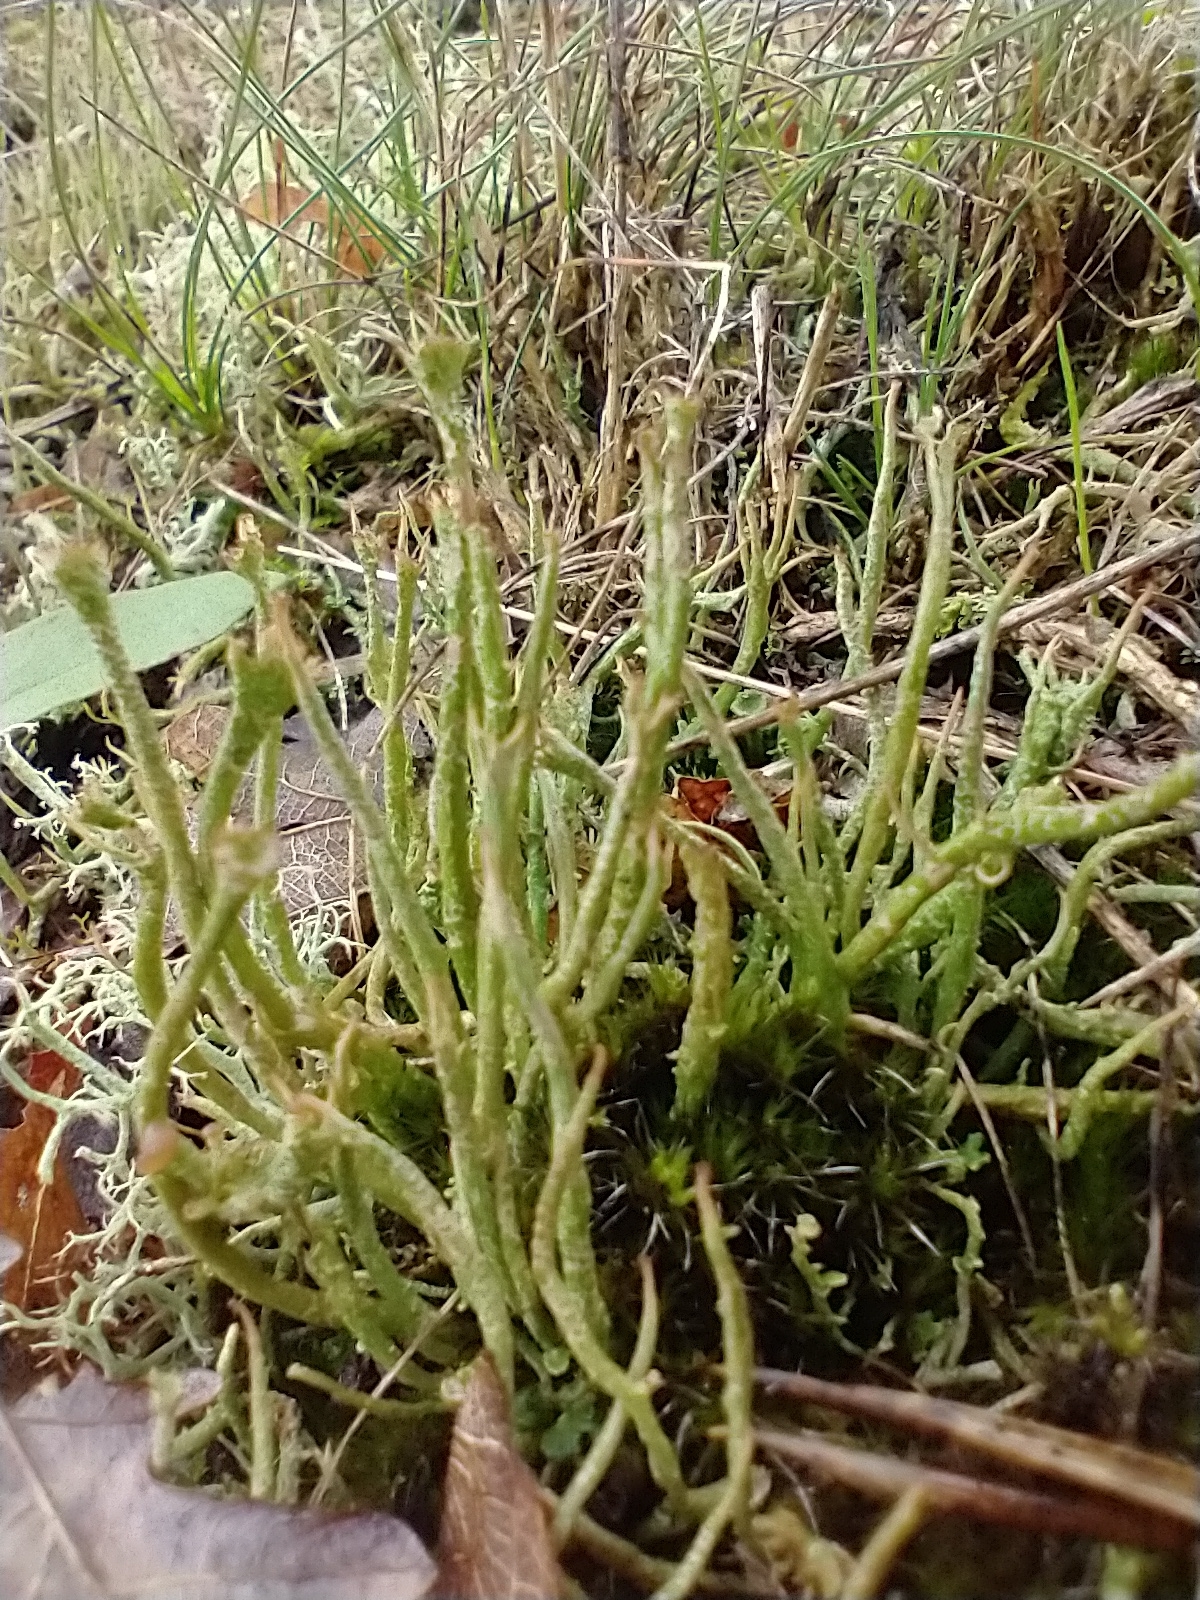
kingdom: Fungi
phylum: Ascomycota
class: Lecanoromycetes
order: Lecanorales
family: Cladoniaceae
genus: Cladonia
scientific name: Cladonia gracilis
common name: Smooth clad lichen
